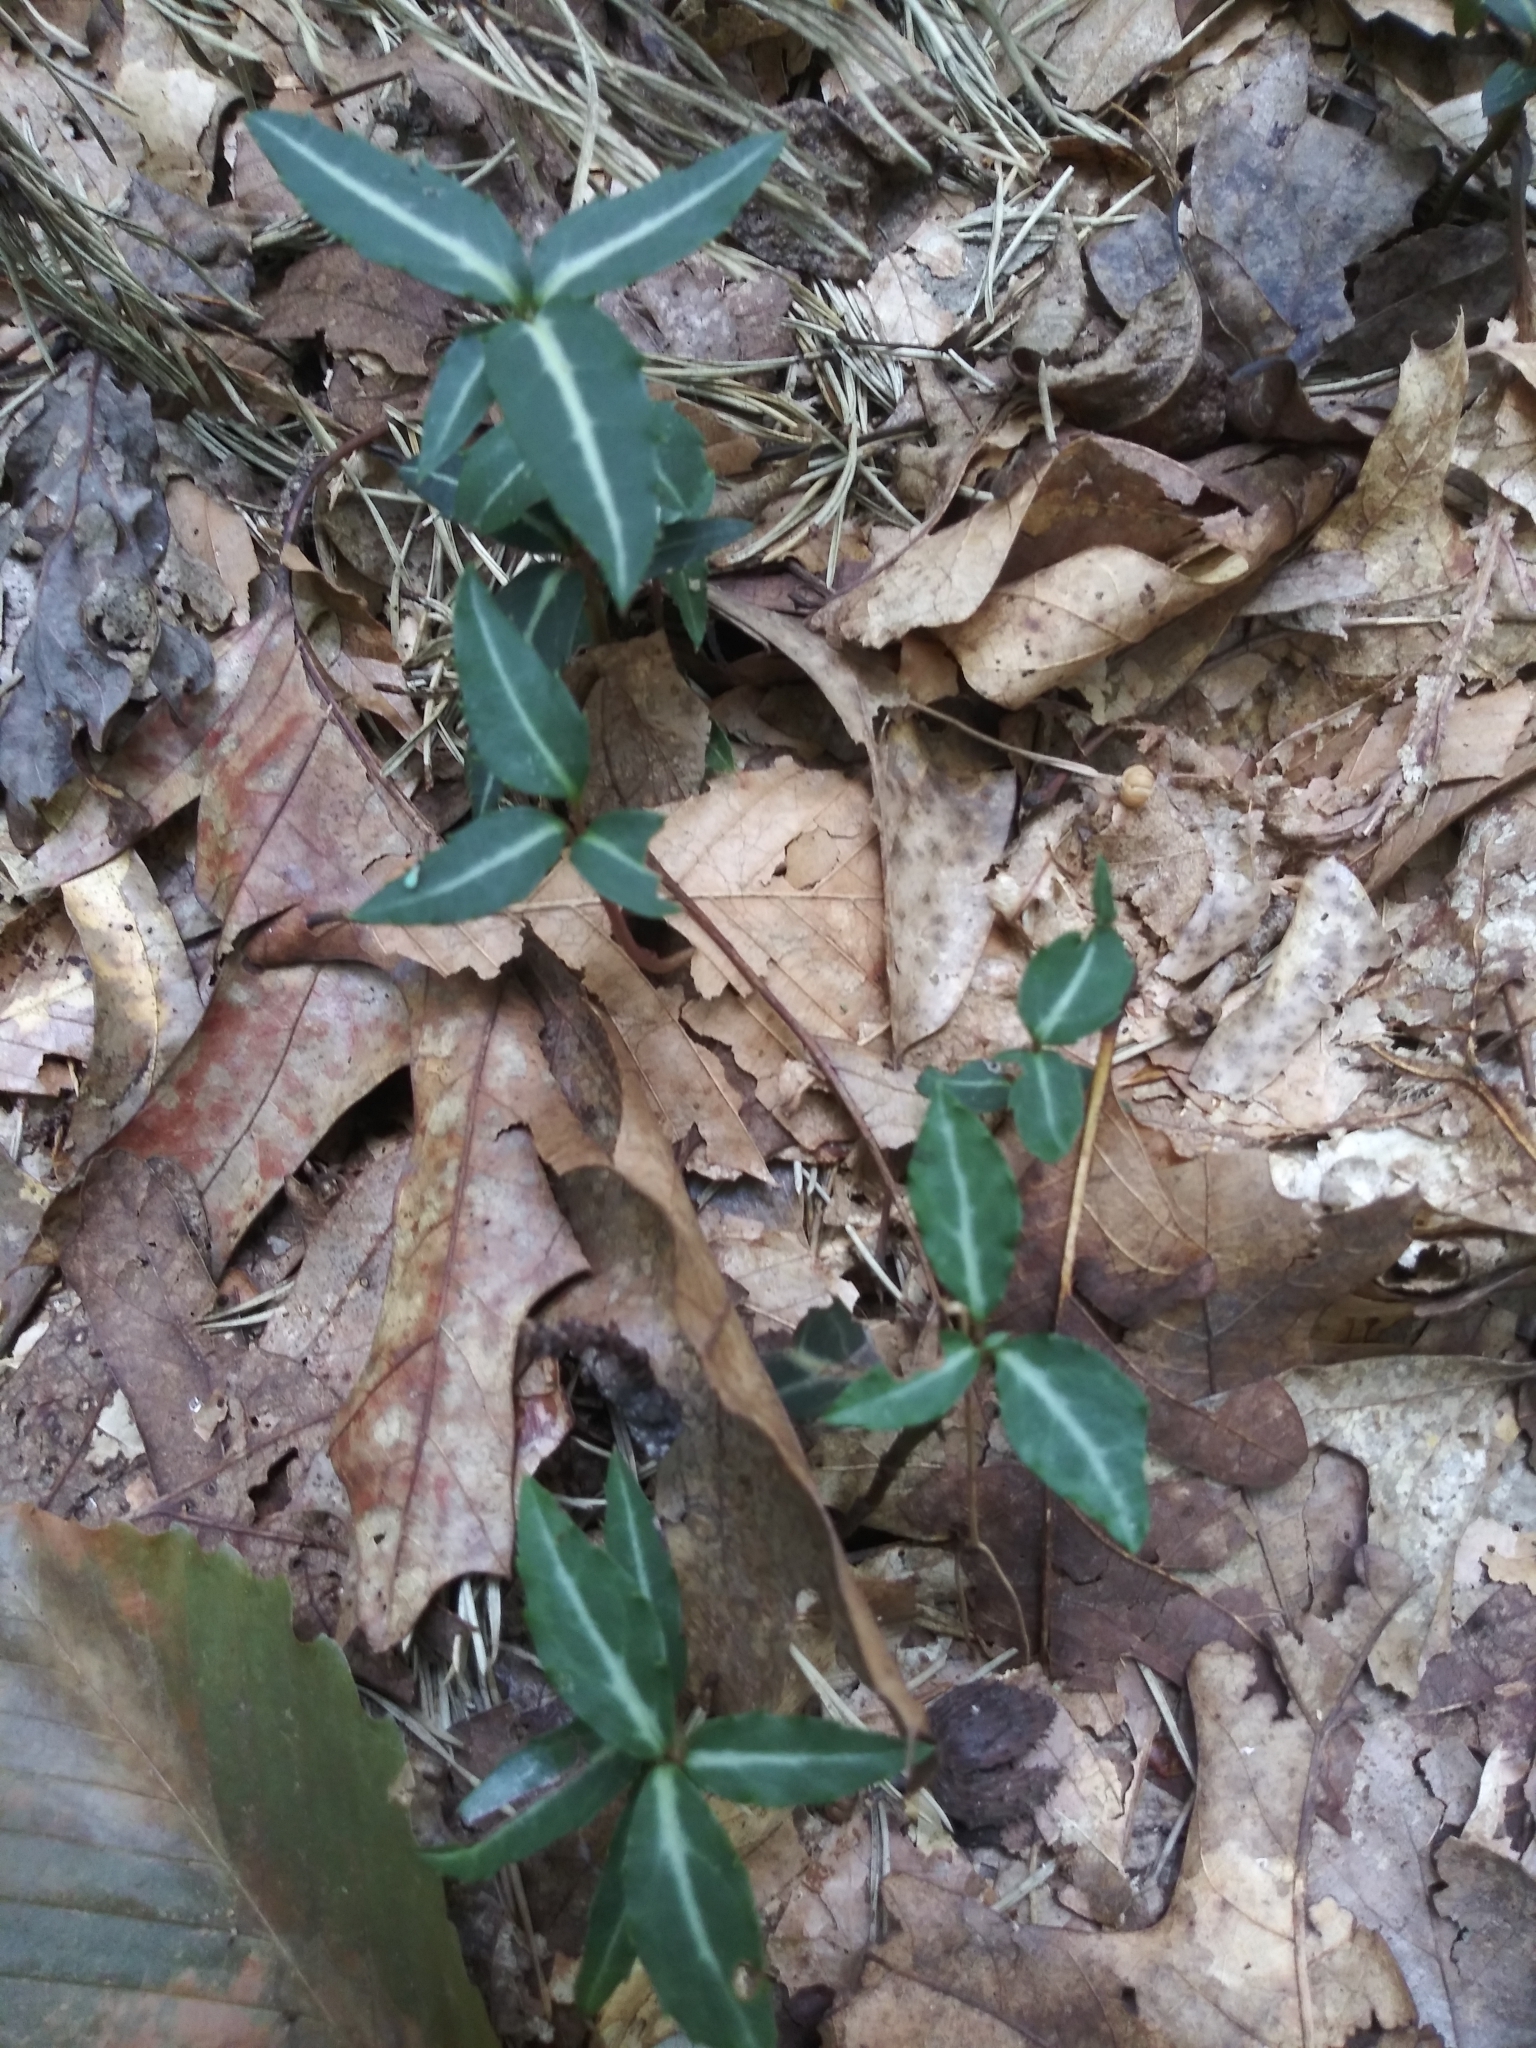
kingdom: Plantae
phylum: Tracheophyta
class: Magnoliopsida
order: Ericales
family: Ericaceae
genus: Chimaphila
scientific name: Chimaphila maculata
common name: Spotted pipsissewa
